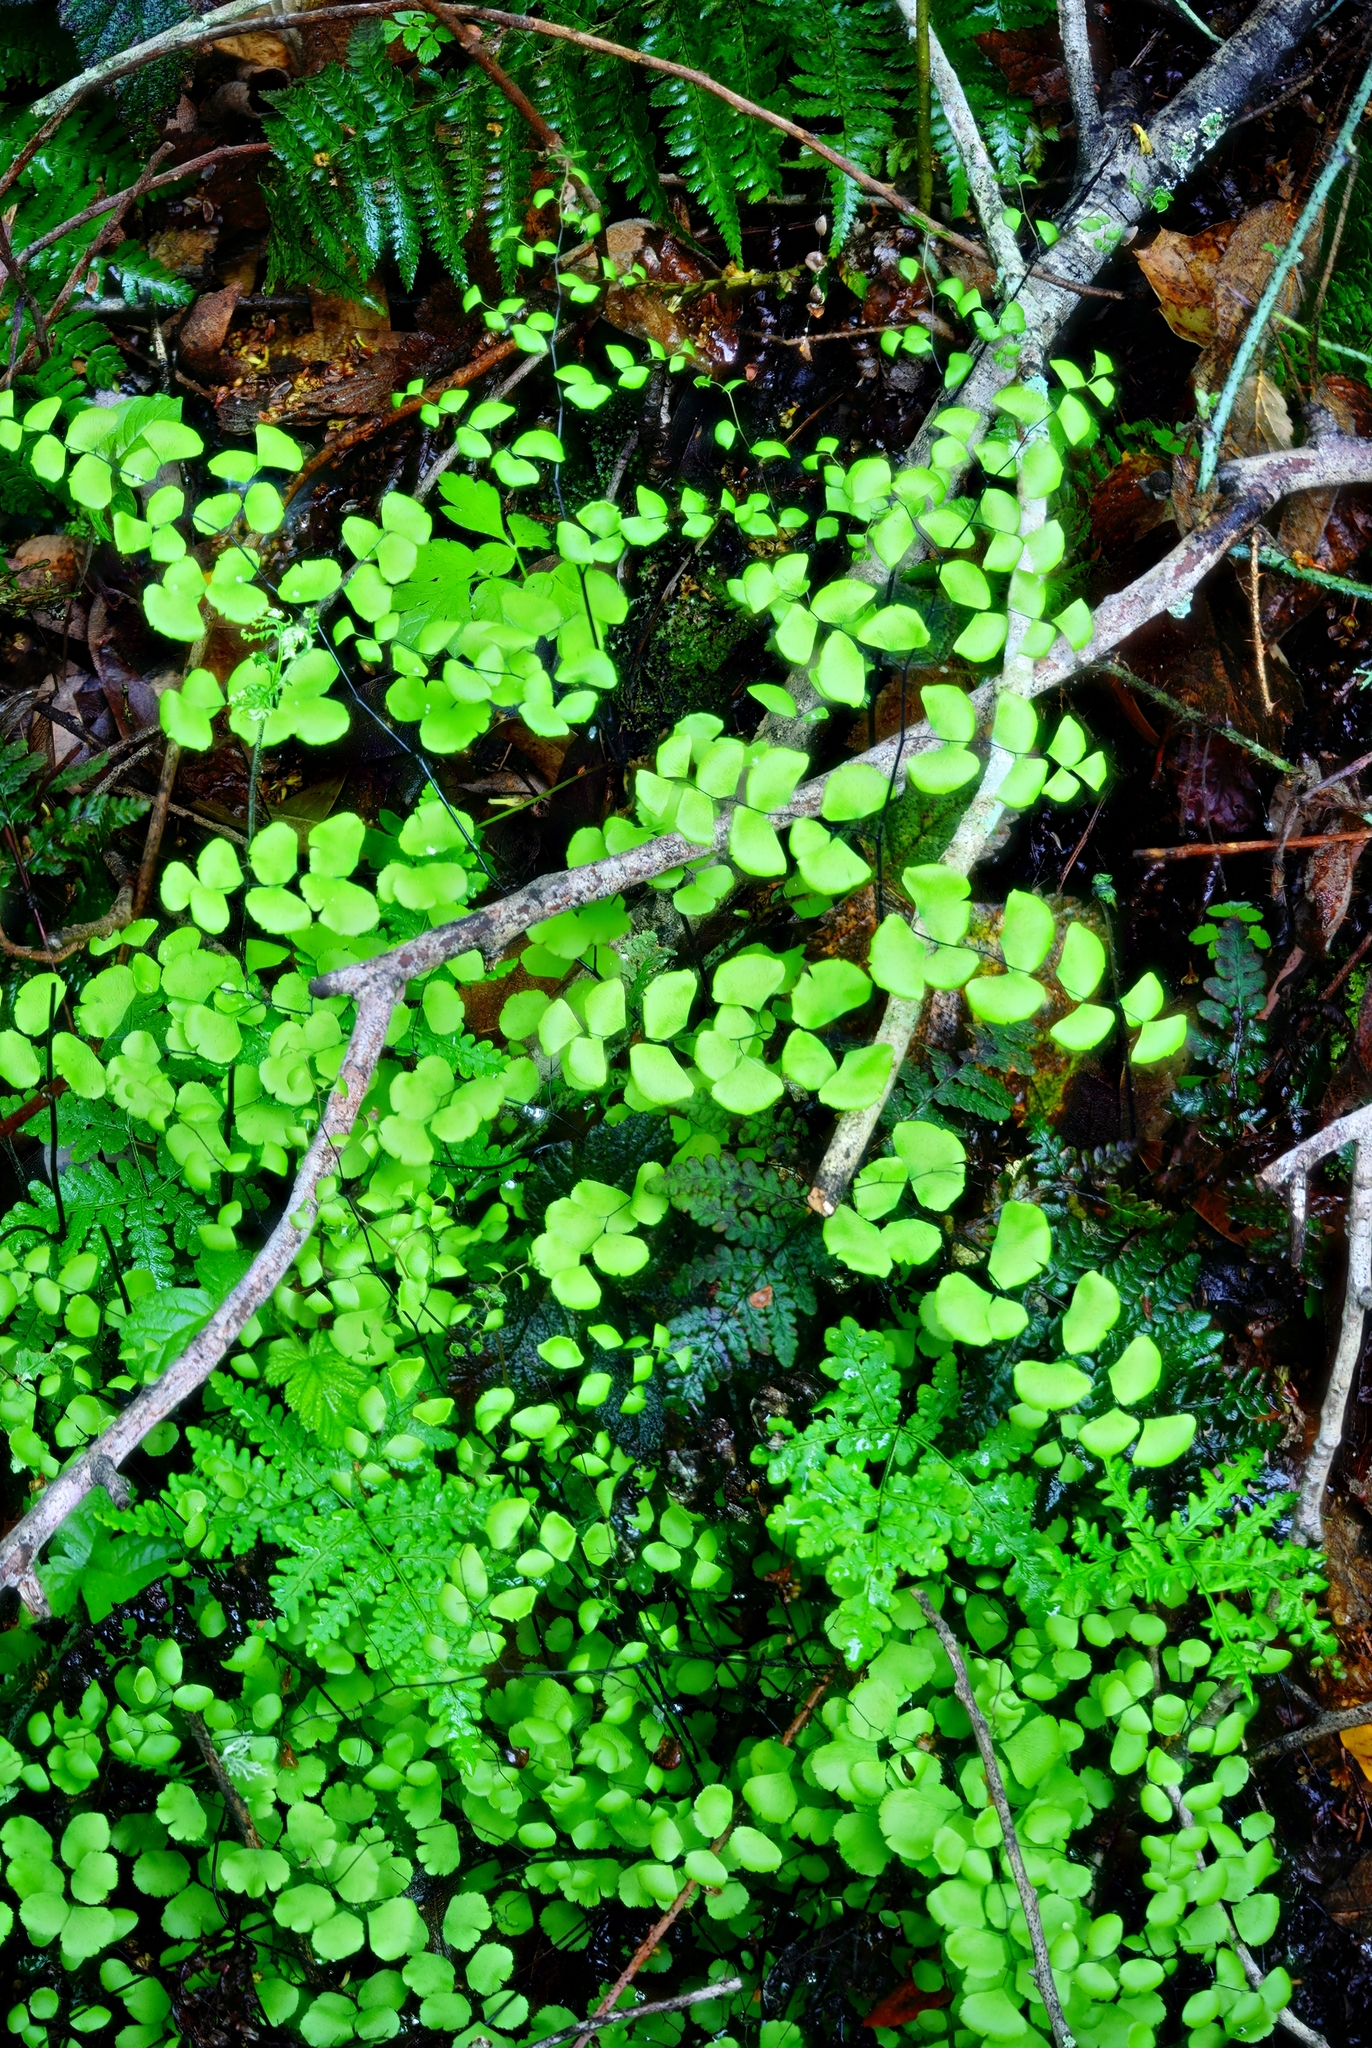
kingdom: Plantae
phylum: Tracheophyta
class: Polypodiopsida
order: Polypodiales
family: Pteridaceae
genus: Adiantum
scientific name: Adiantum jordanii
